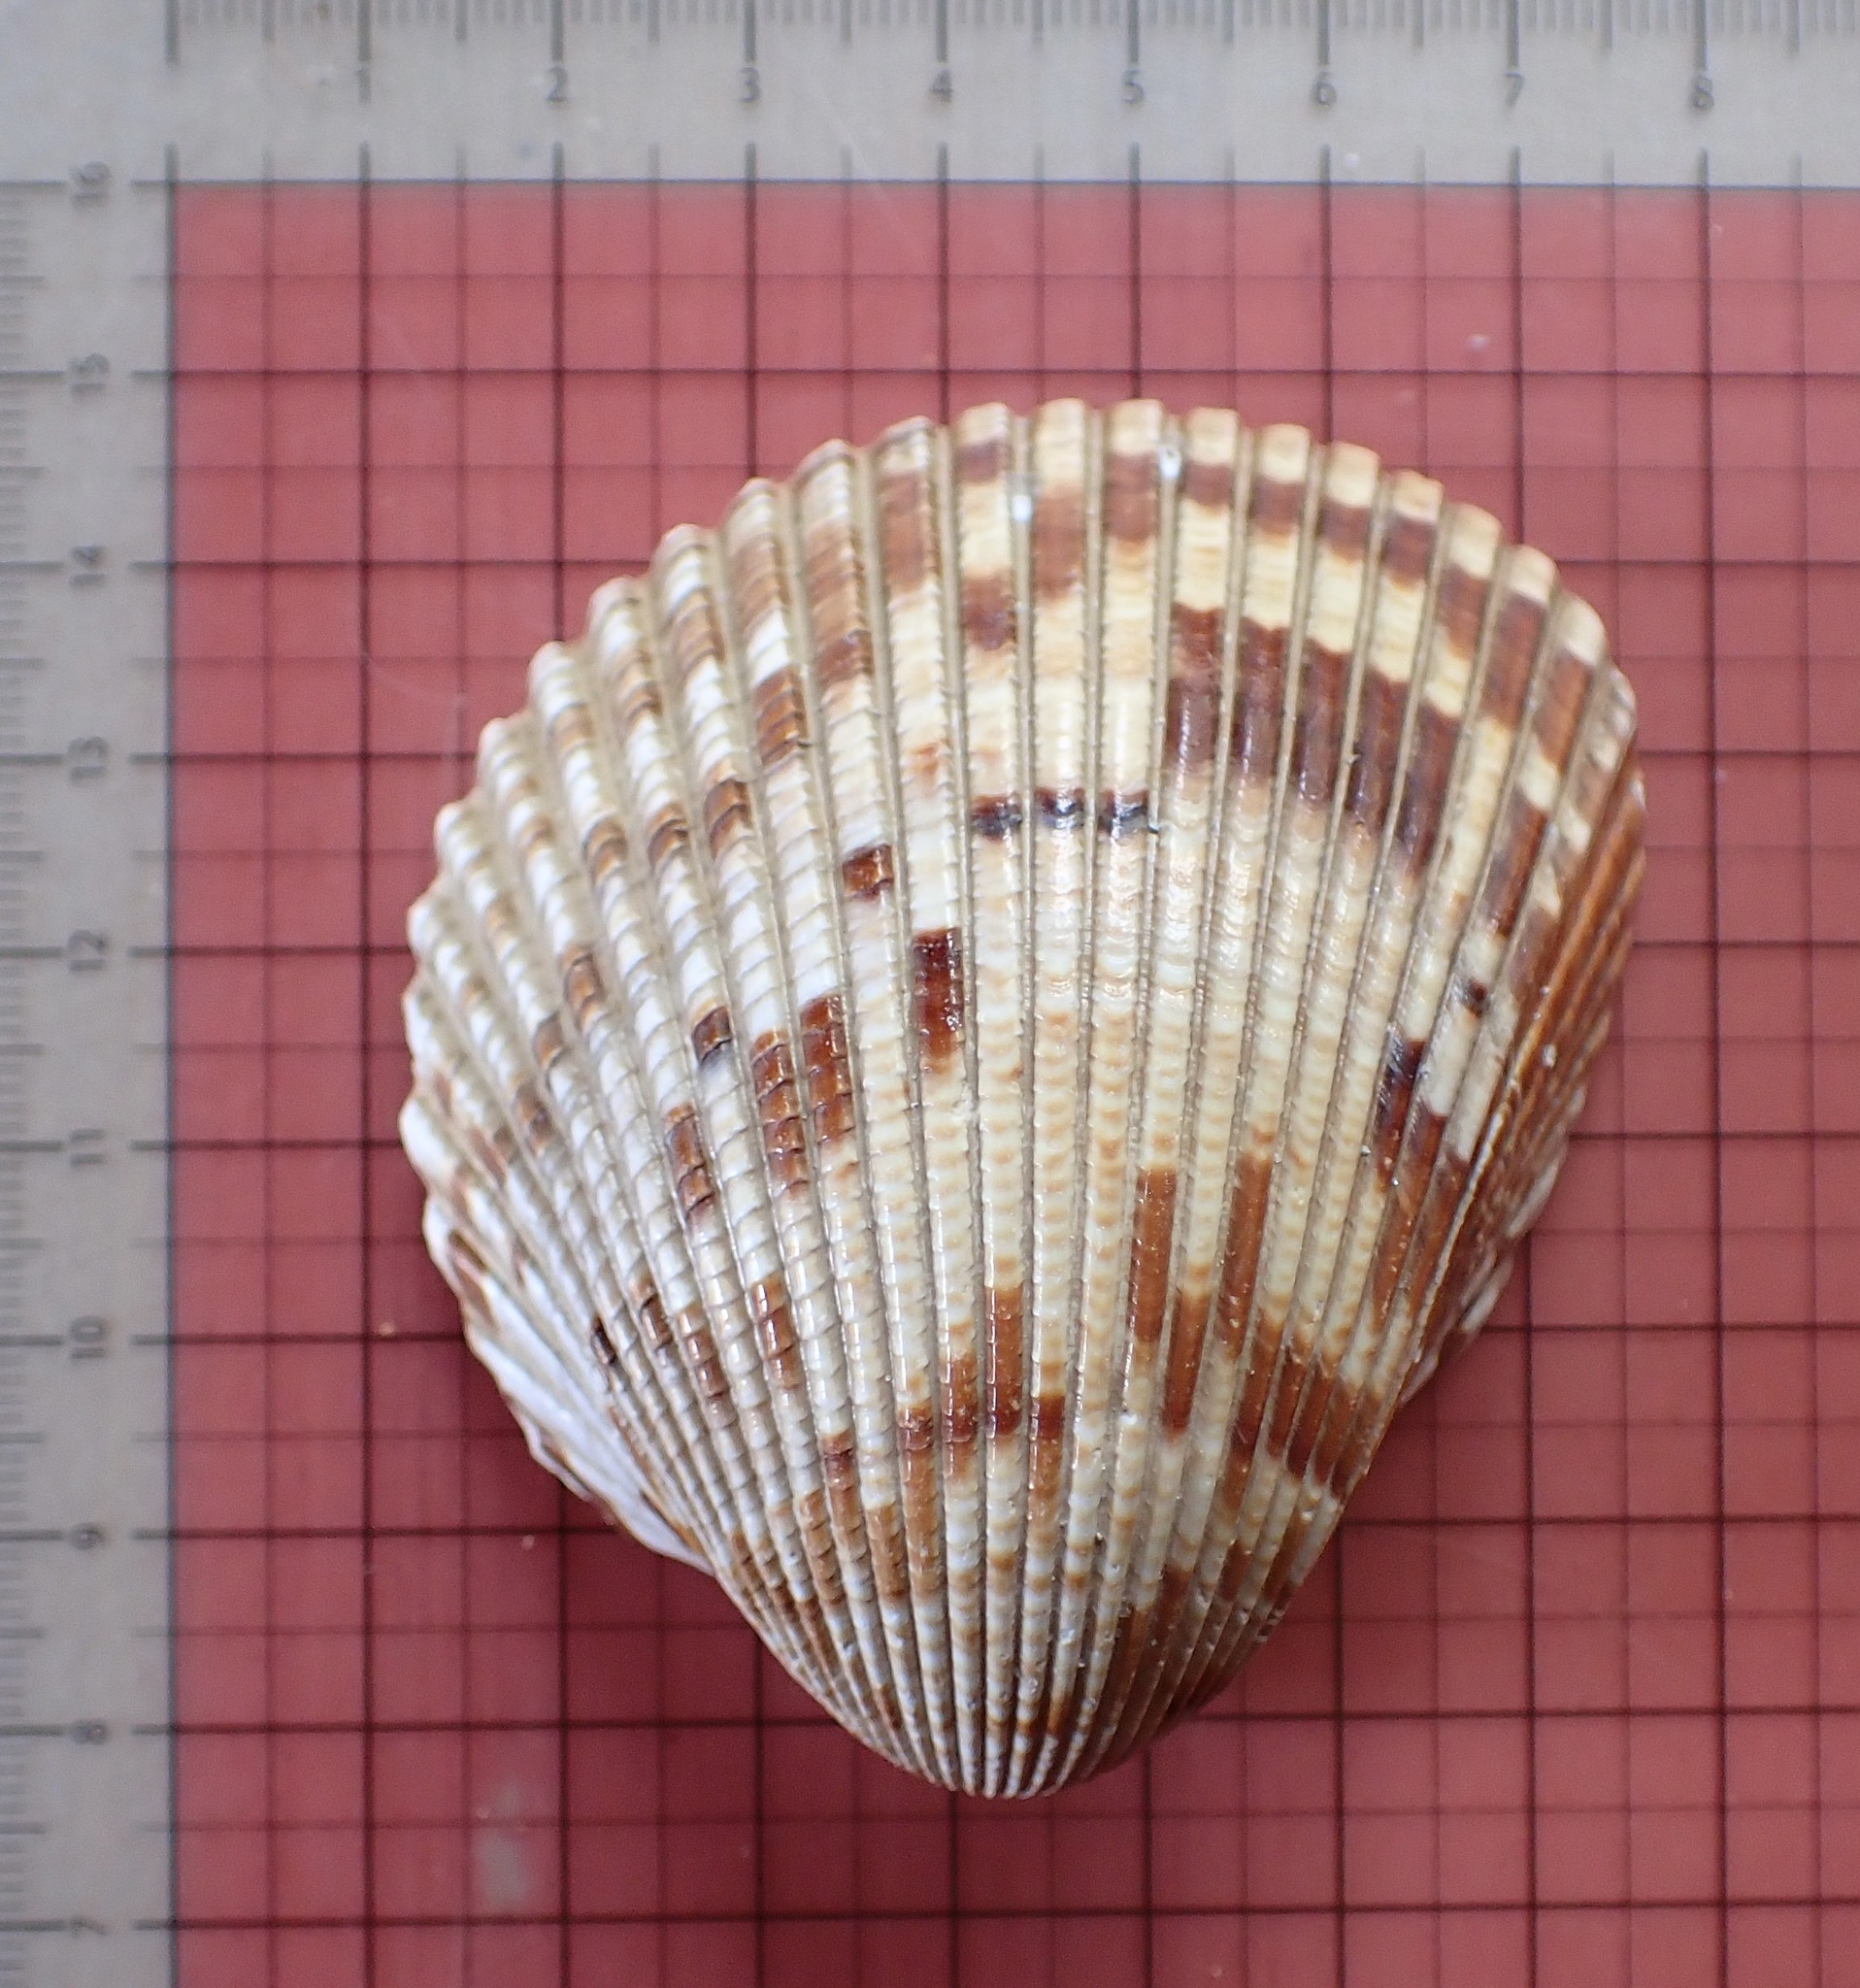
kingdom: Animalia
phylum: Mollusca
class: Bivalvia
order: Cardiida
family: Cardiidae
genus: Dinocardium
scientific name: Dinocardium robustum
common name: Atlantic giant cockle
